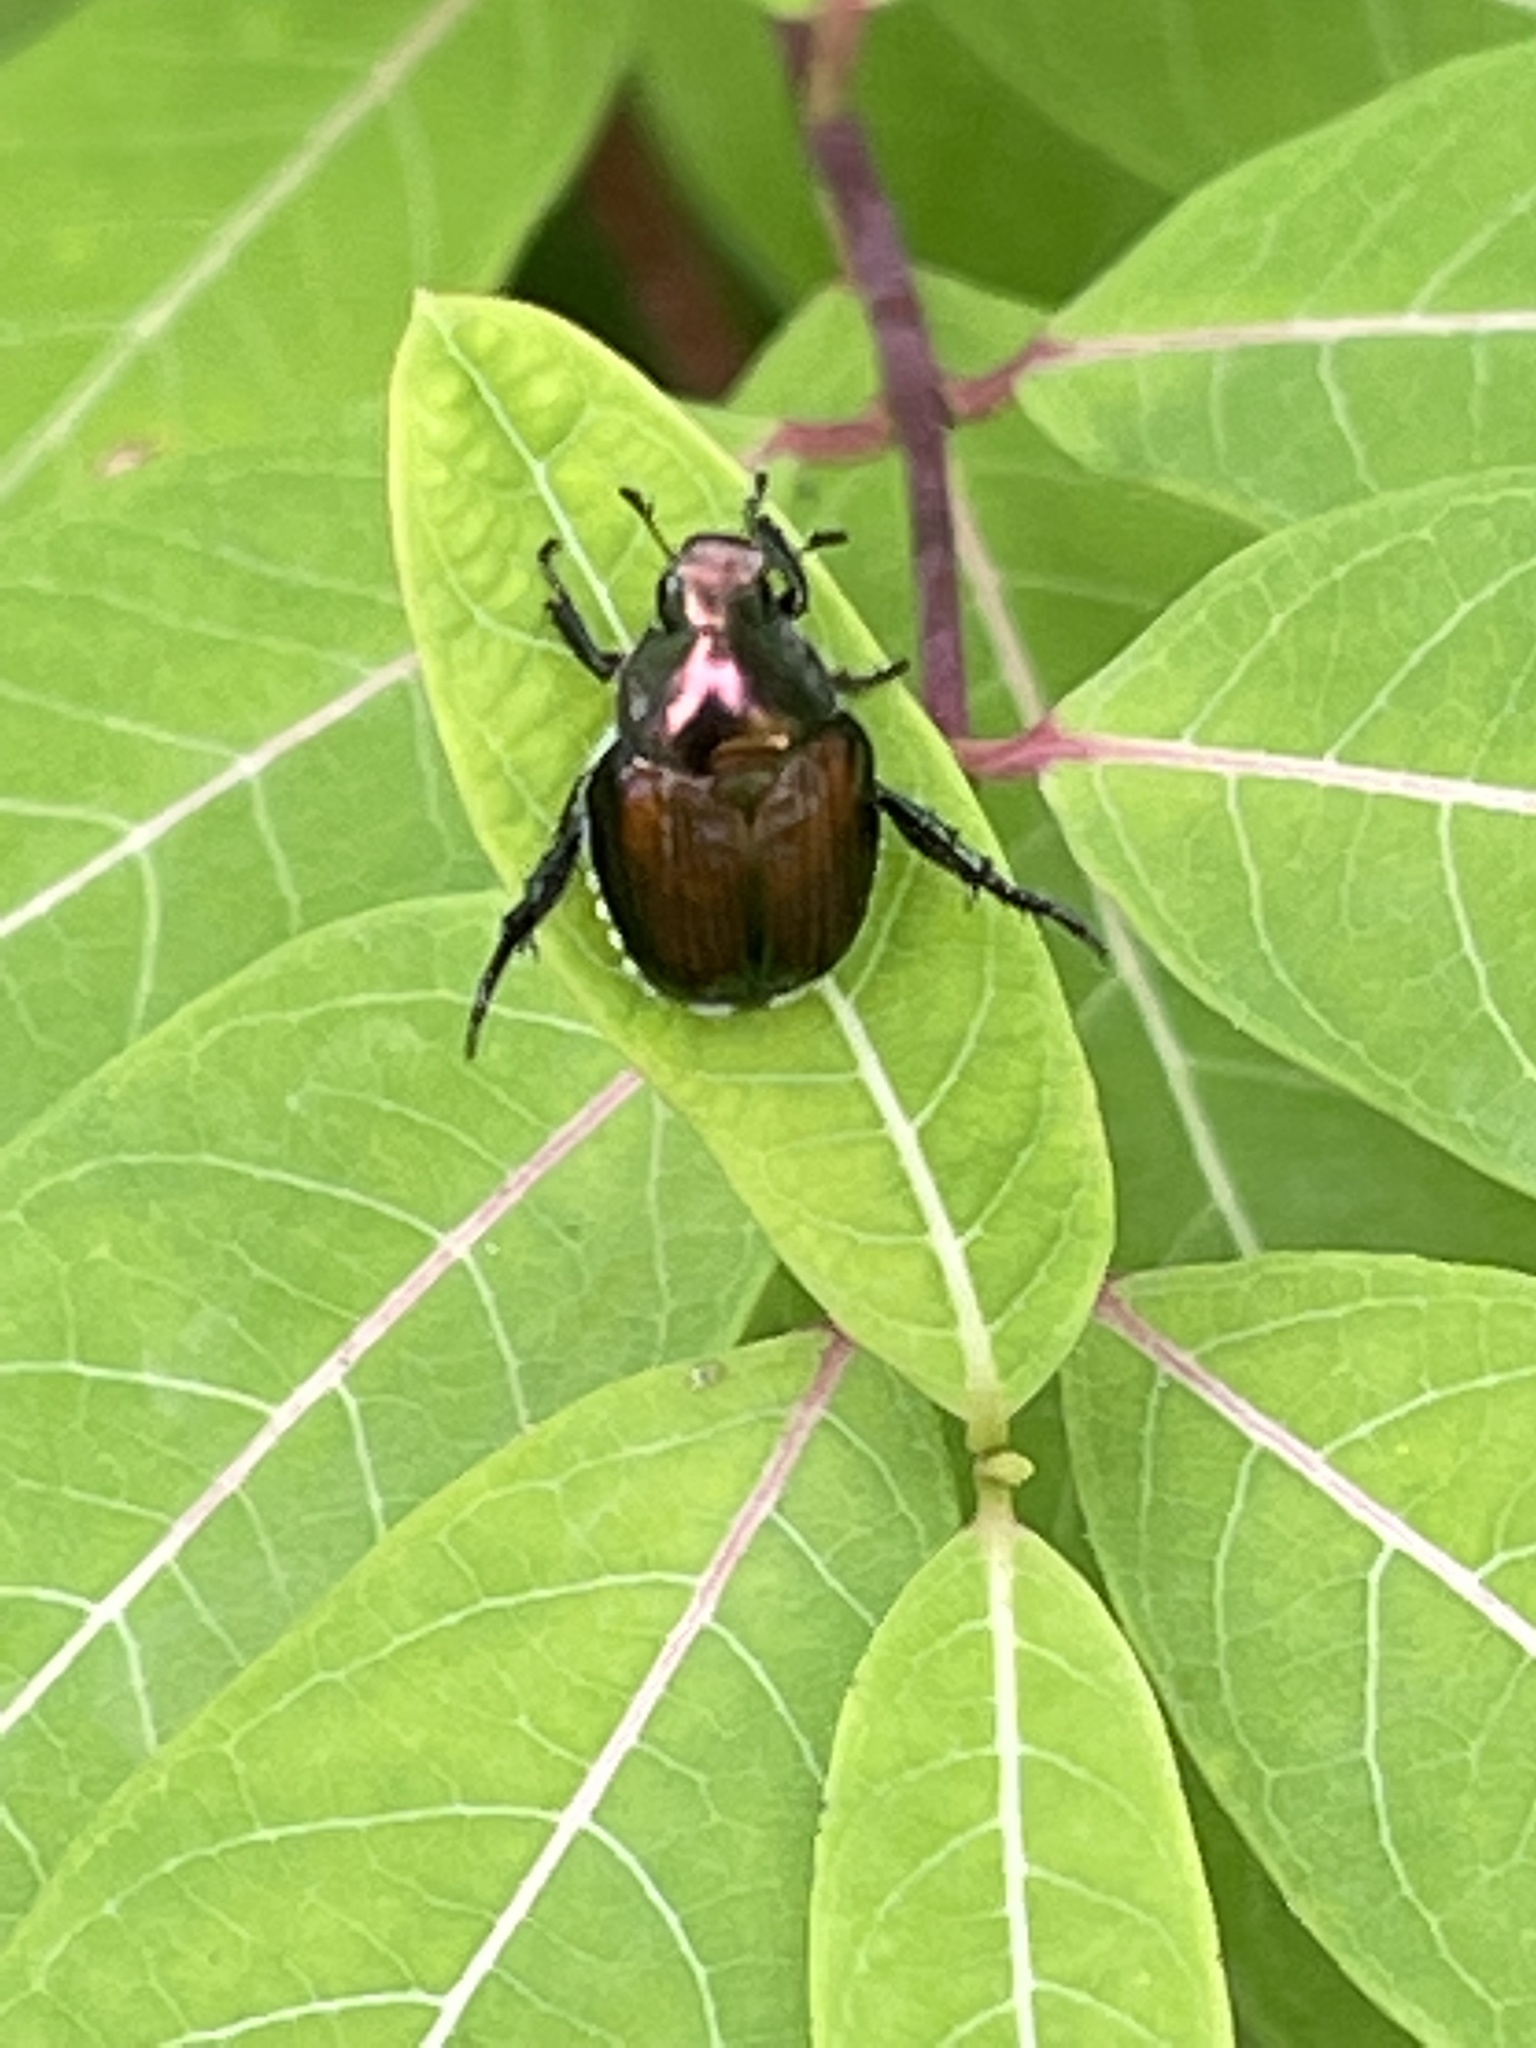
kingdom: Animalia
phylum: Arthropoda
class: Insecta
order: Coleoptera
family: Scarabaeidae
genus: Popillia
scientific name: Popillia japonica
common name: Japanese beetle
